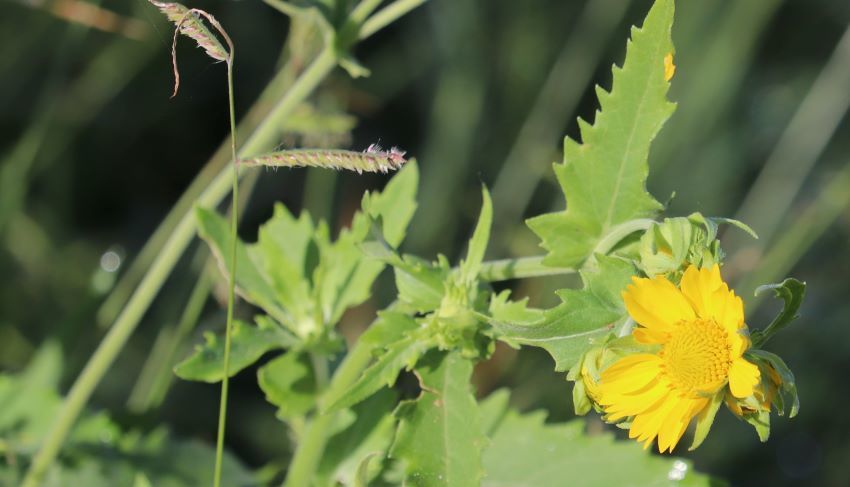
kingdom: Plantae
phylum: Tracheophyta
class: Magnoliopsida
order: Asterales
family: Asteraceae
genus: Verbesina
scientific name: Verbesina encelioides
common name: Golden crownbeard
